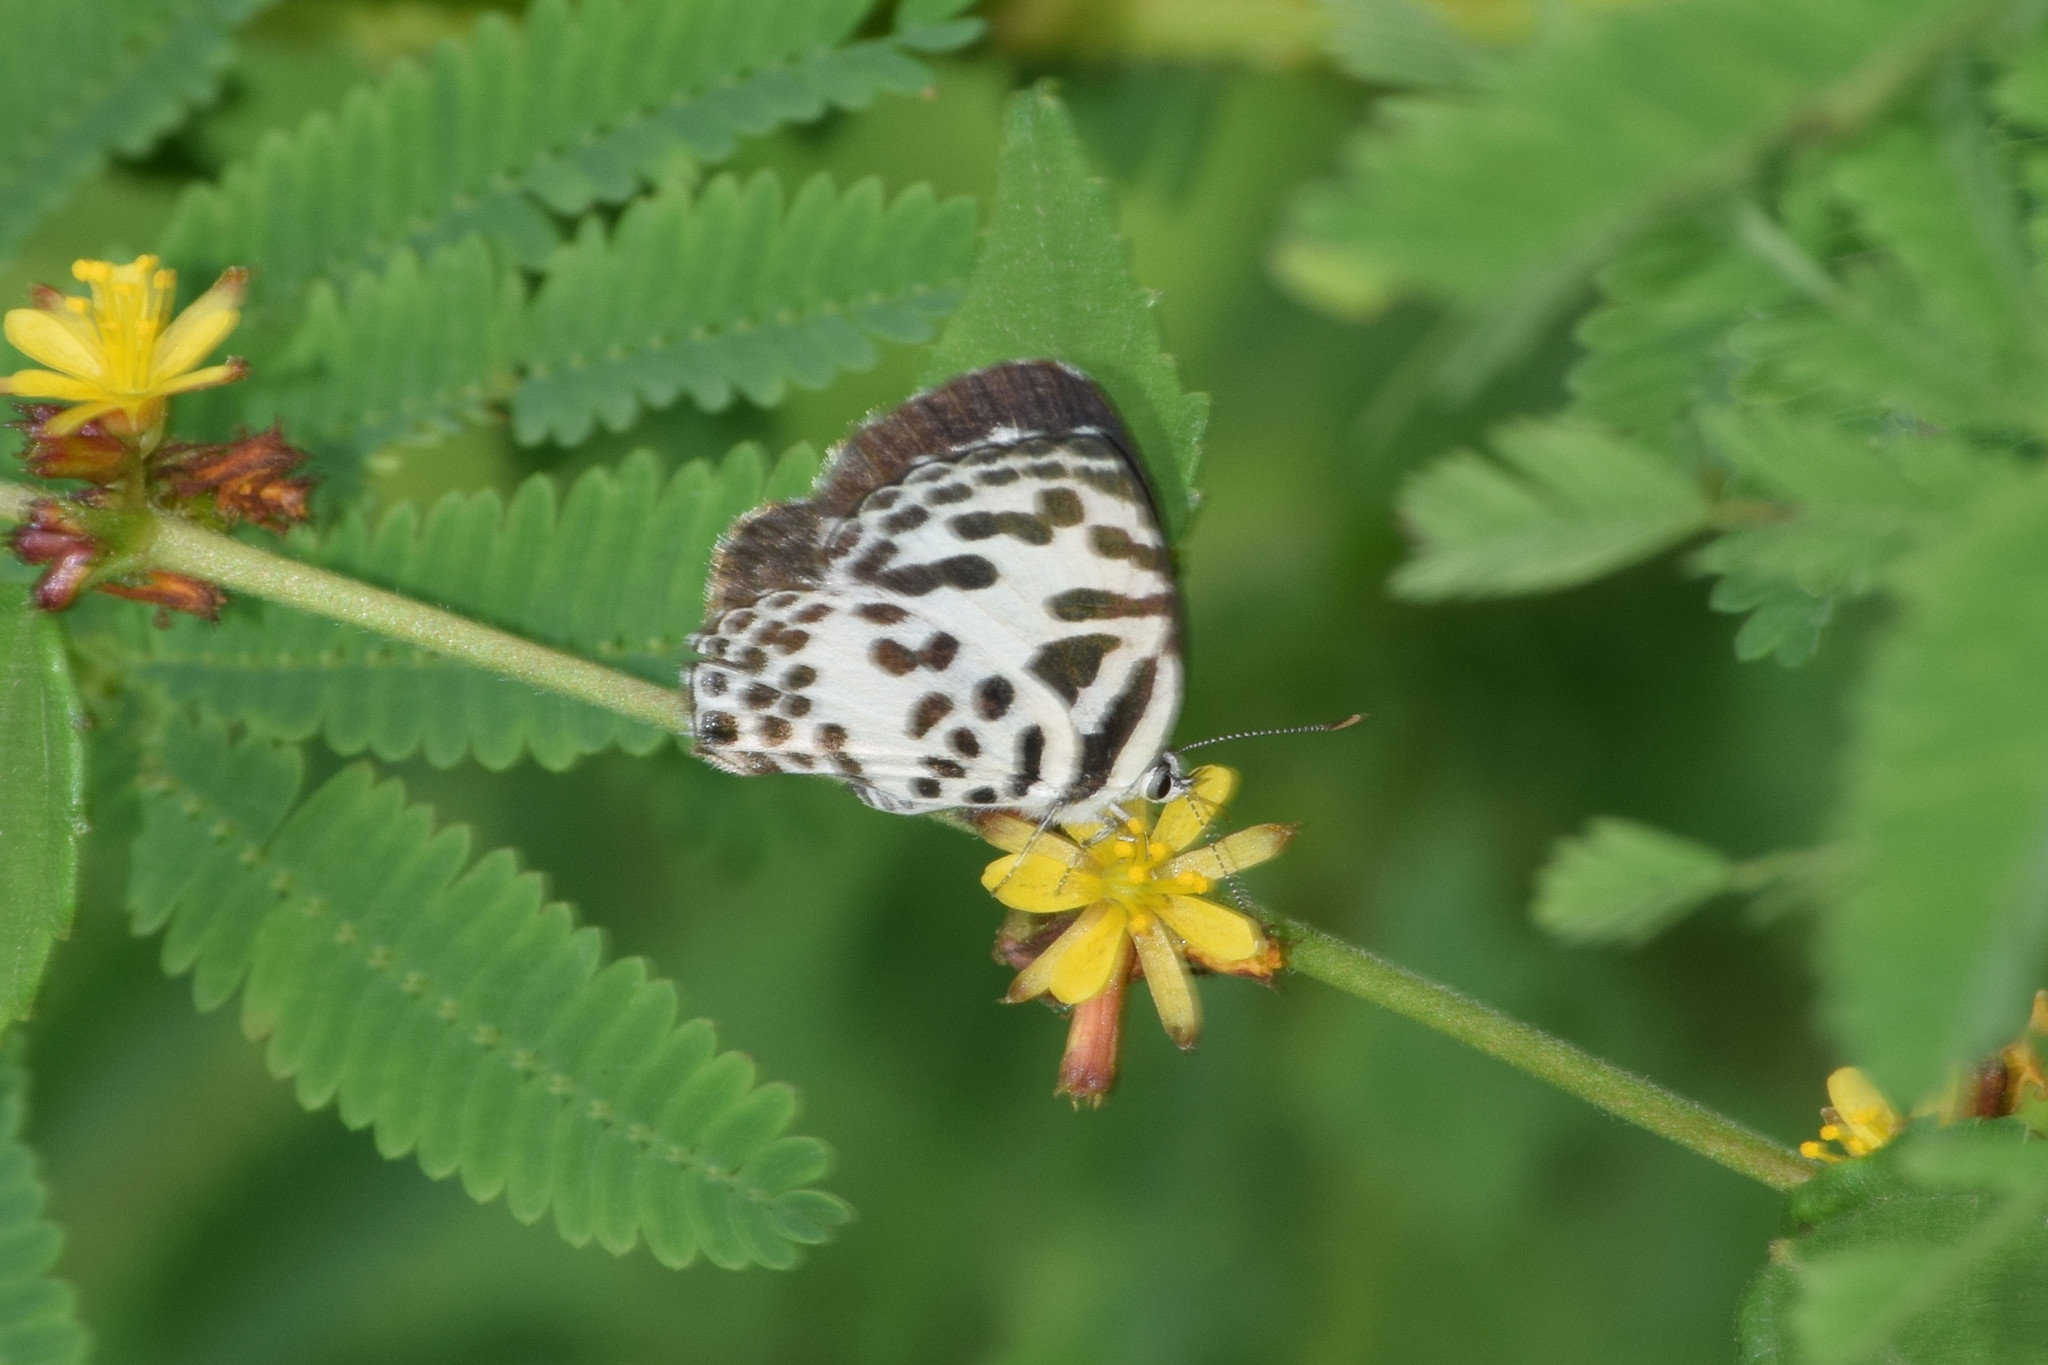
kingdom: Animalia
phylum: Arthropoda
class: Insecta
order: Lepidoptera
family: Lycaenidae
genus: Castalius
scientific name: Castalius rosimon
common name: Common pierrot
